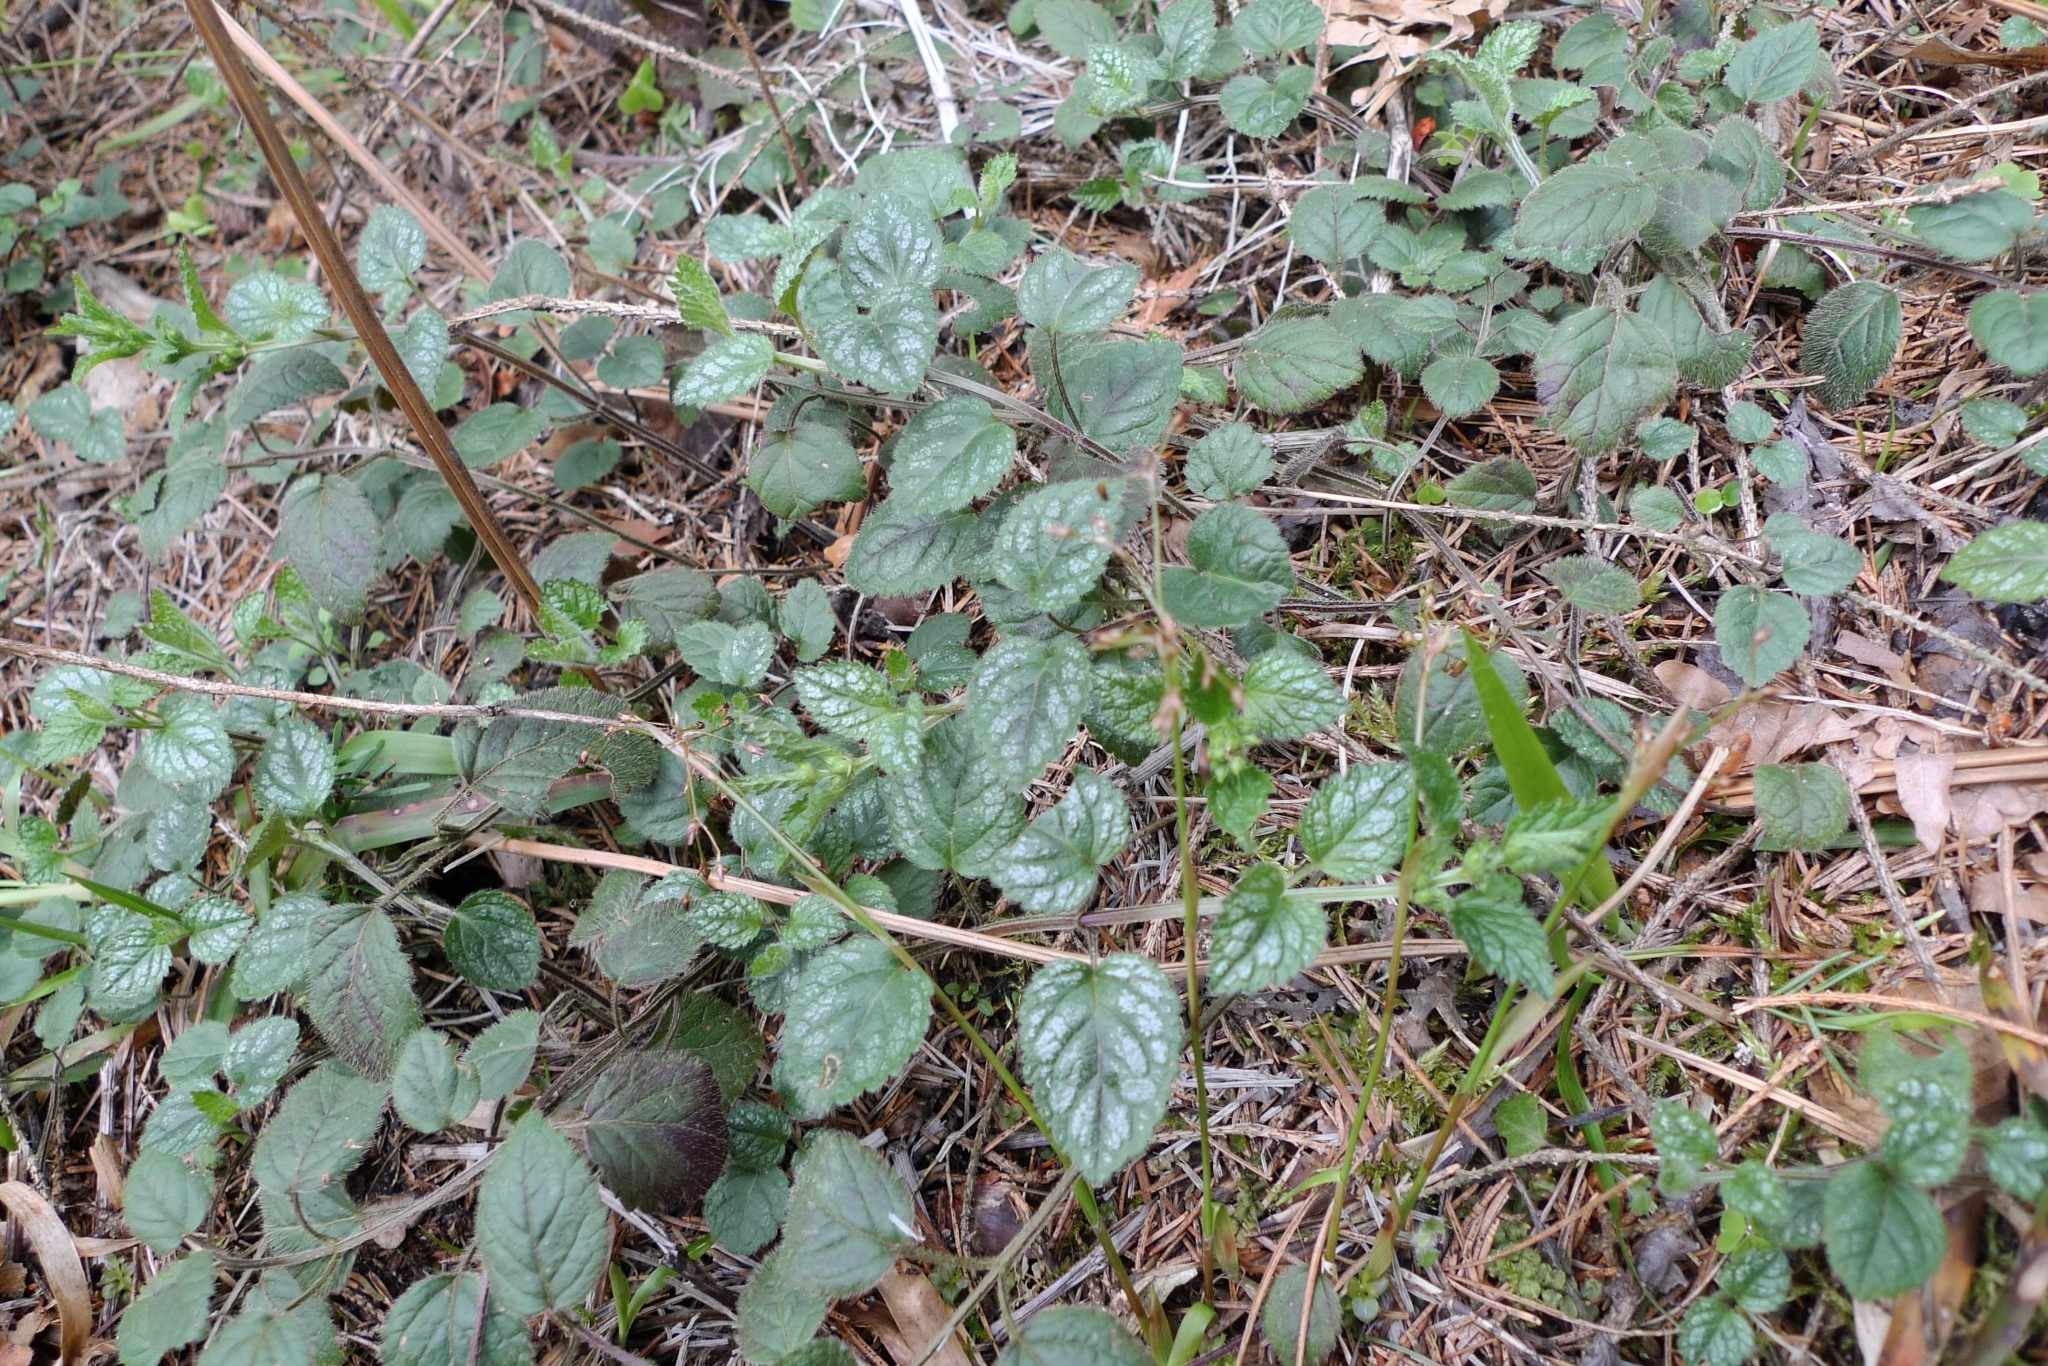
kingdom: Plantae
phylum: Tracheophyta
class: Magnoliopsida
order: Lamiales
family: Lamiaceae
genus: Lamium
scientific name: Lamium galeobdolon
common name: Yellow archangel
